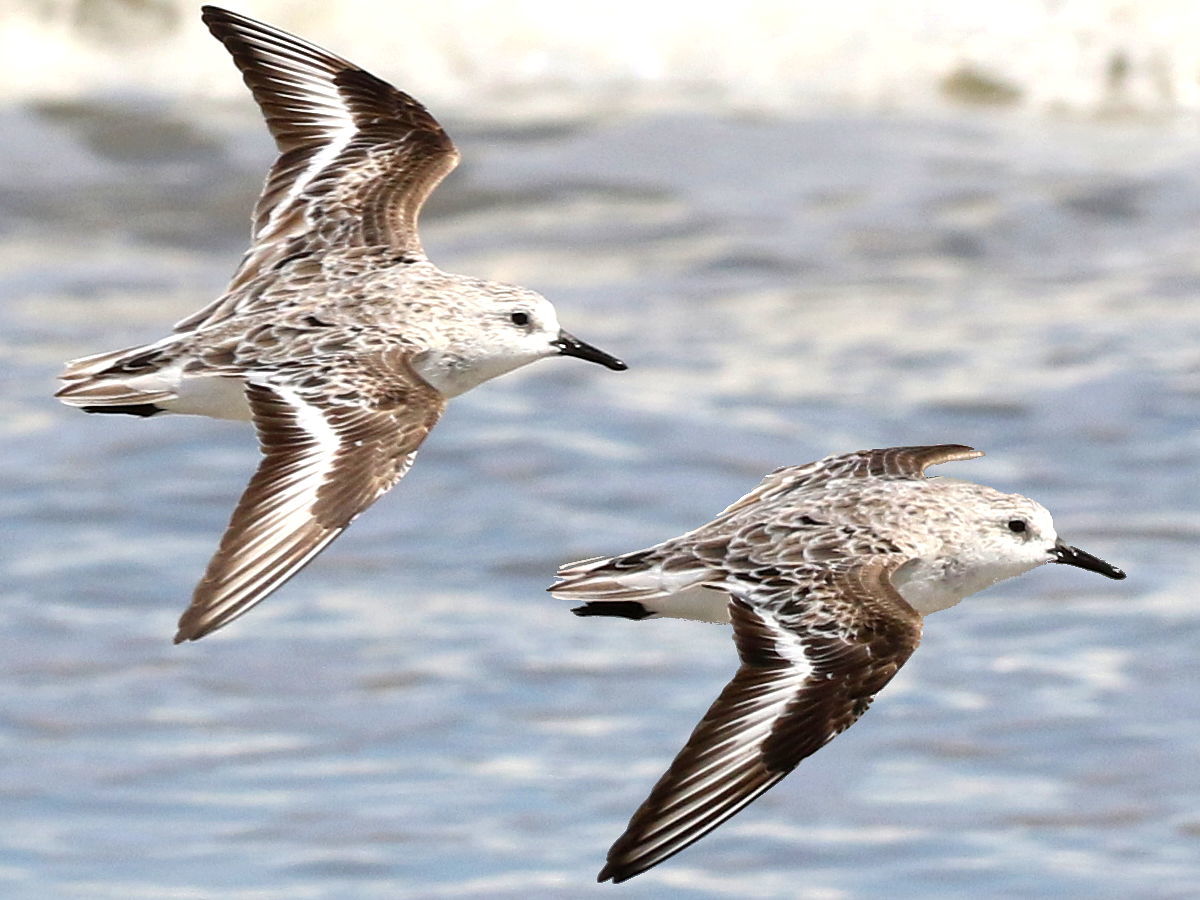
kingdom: Animalia
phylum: Chordata
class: Aves
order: Charadriiformes
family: Scolopacidae
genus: Calidris
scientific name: Calidris alba
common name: Sanderling
